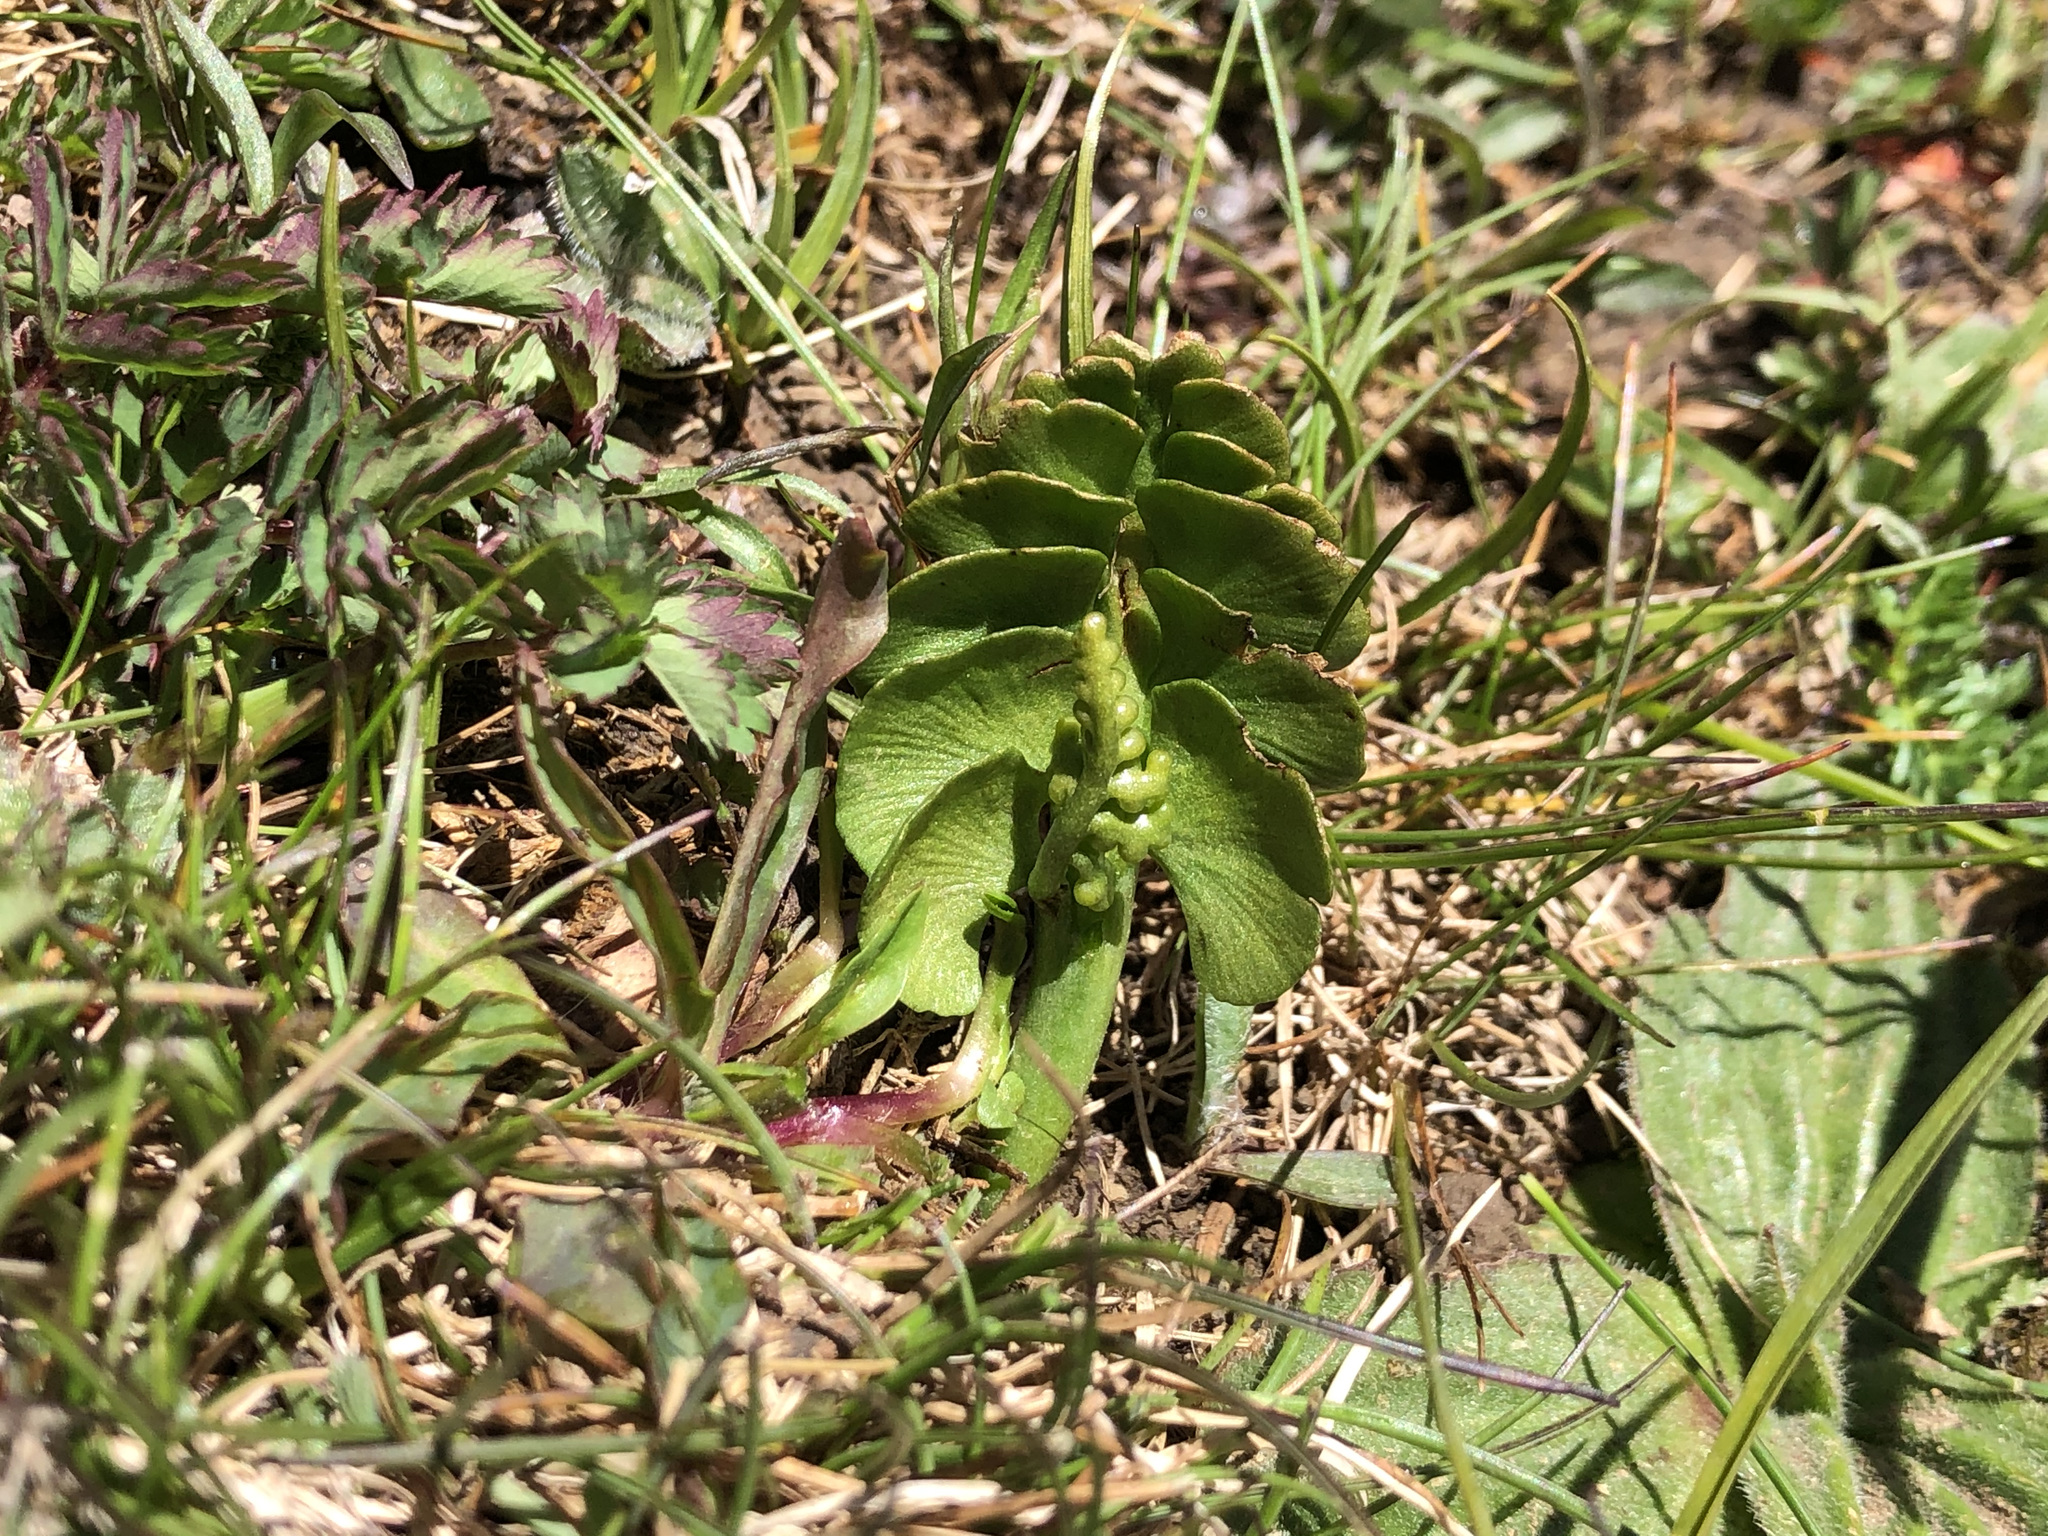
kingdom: Plantae
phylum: Tracheophyta
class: Polypodiopsida
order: Ophioglossales
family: Ophioglossaceae
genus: Botrychium
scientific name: Botrychium lunaria
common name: Moonwort
